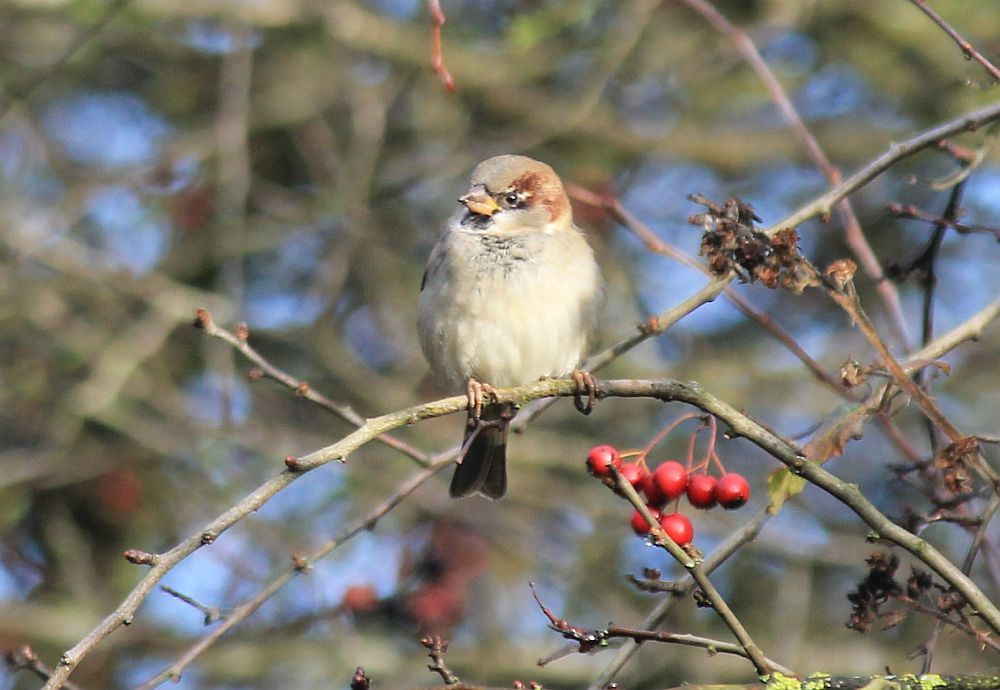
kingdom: Animalia
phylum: Chordata
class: Aves
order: Passeriformes
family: Passeridae
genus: Passer
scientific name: Passer domesticus
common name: House sparrow
